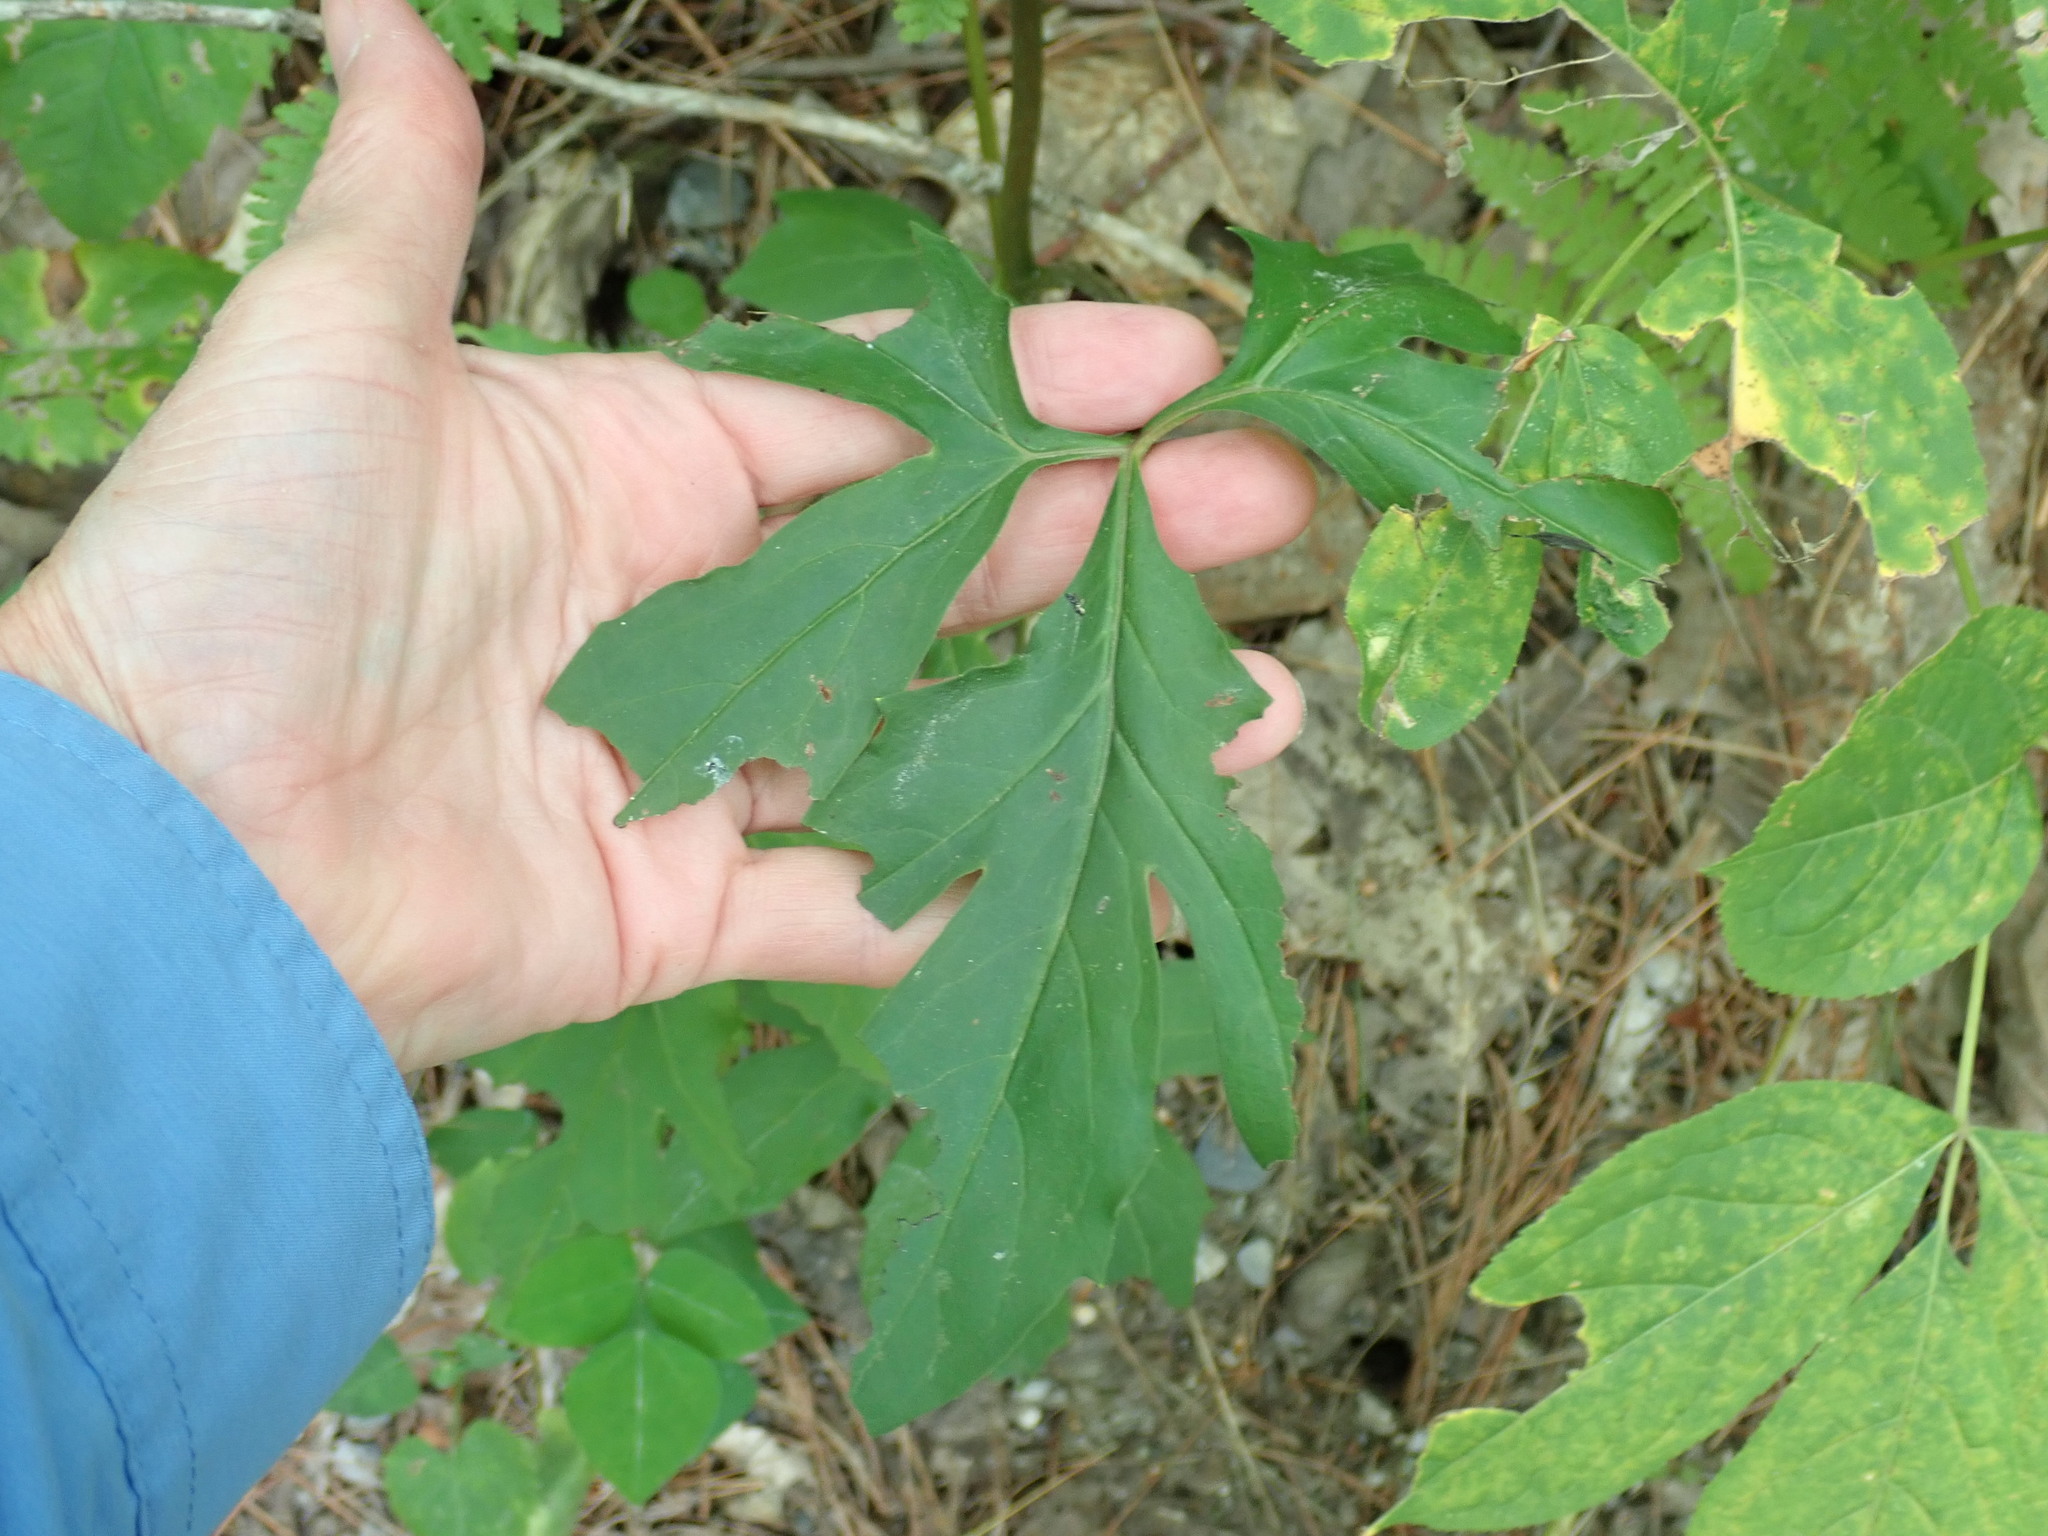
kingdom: Plantae
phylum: Tracheophyta
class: Magnoliopsida
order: Asterales
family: Asteraceae
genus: Nabalus
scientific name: Nabalus
